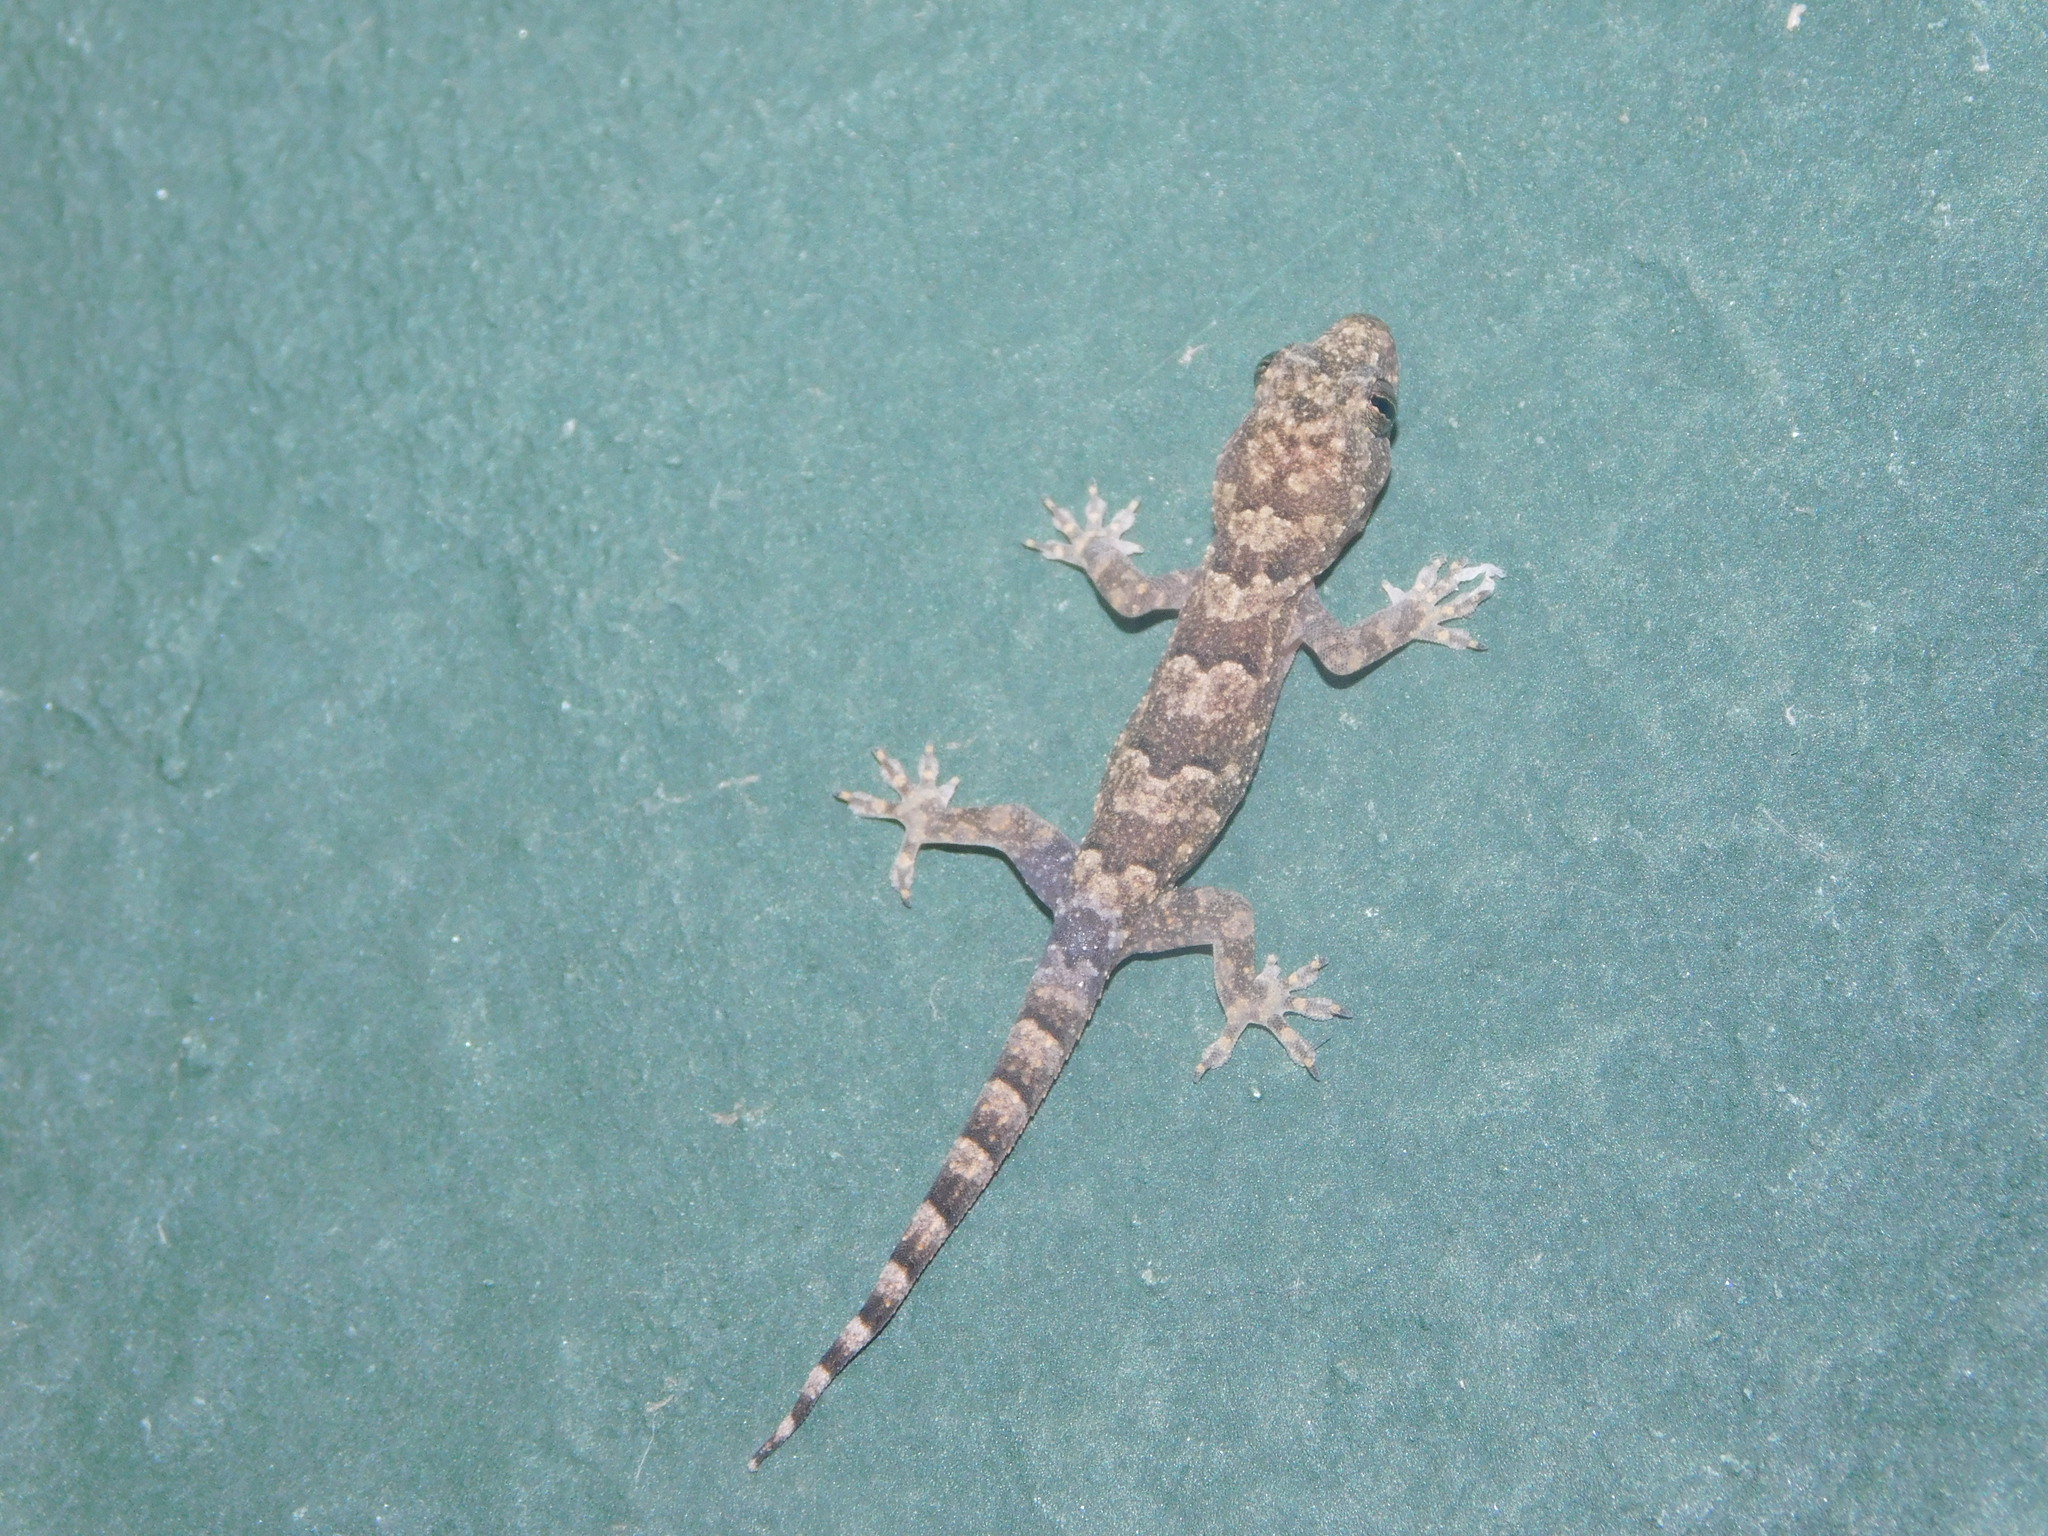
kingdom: Animalia
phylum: Chordata
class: Squamata
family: Gekkonidae
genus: Hemidactylus
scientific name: Hemidactylus mabouia
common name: House gecko
